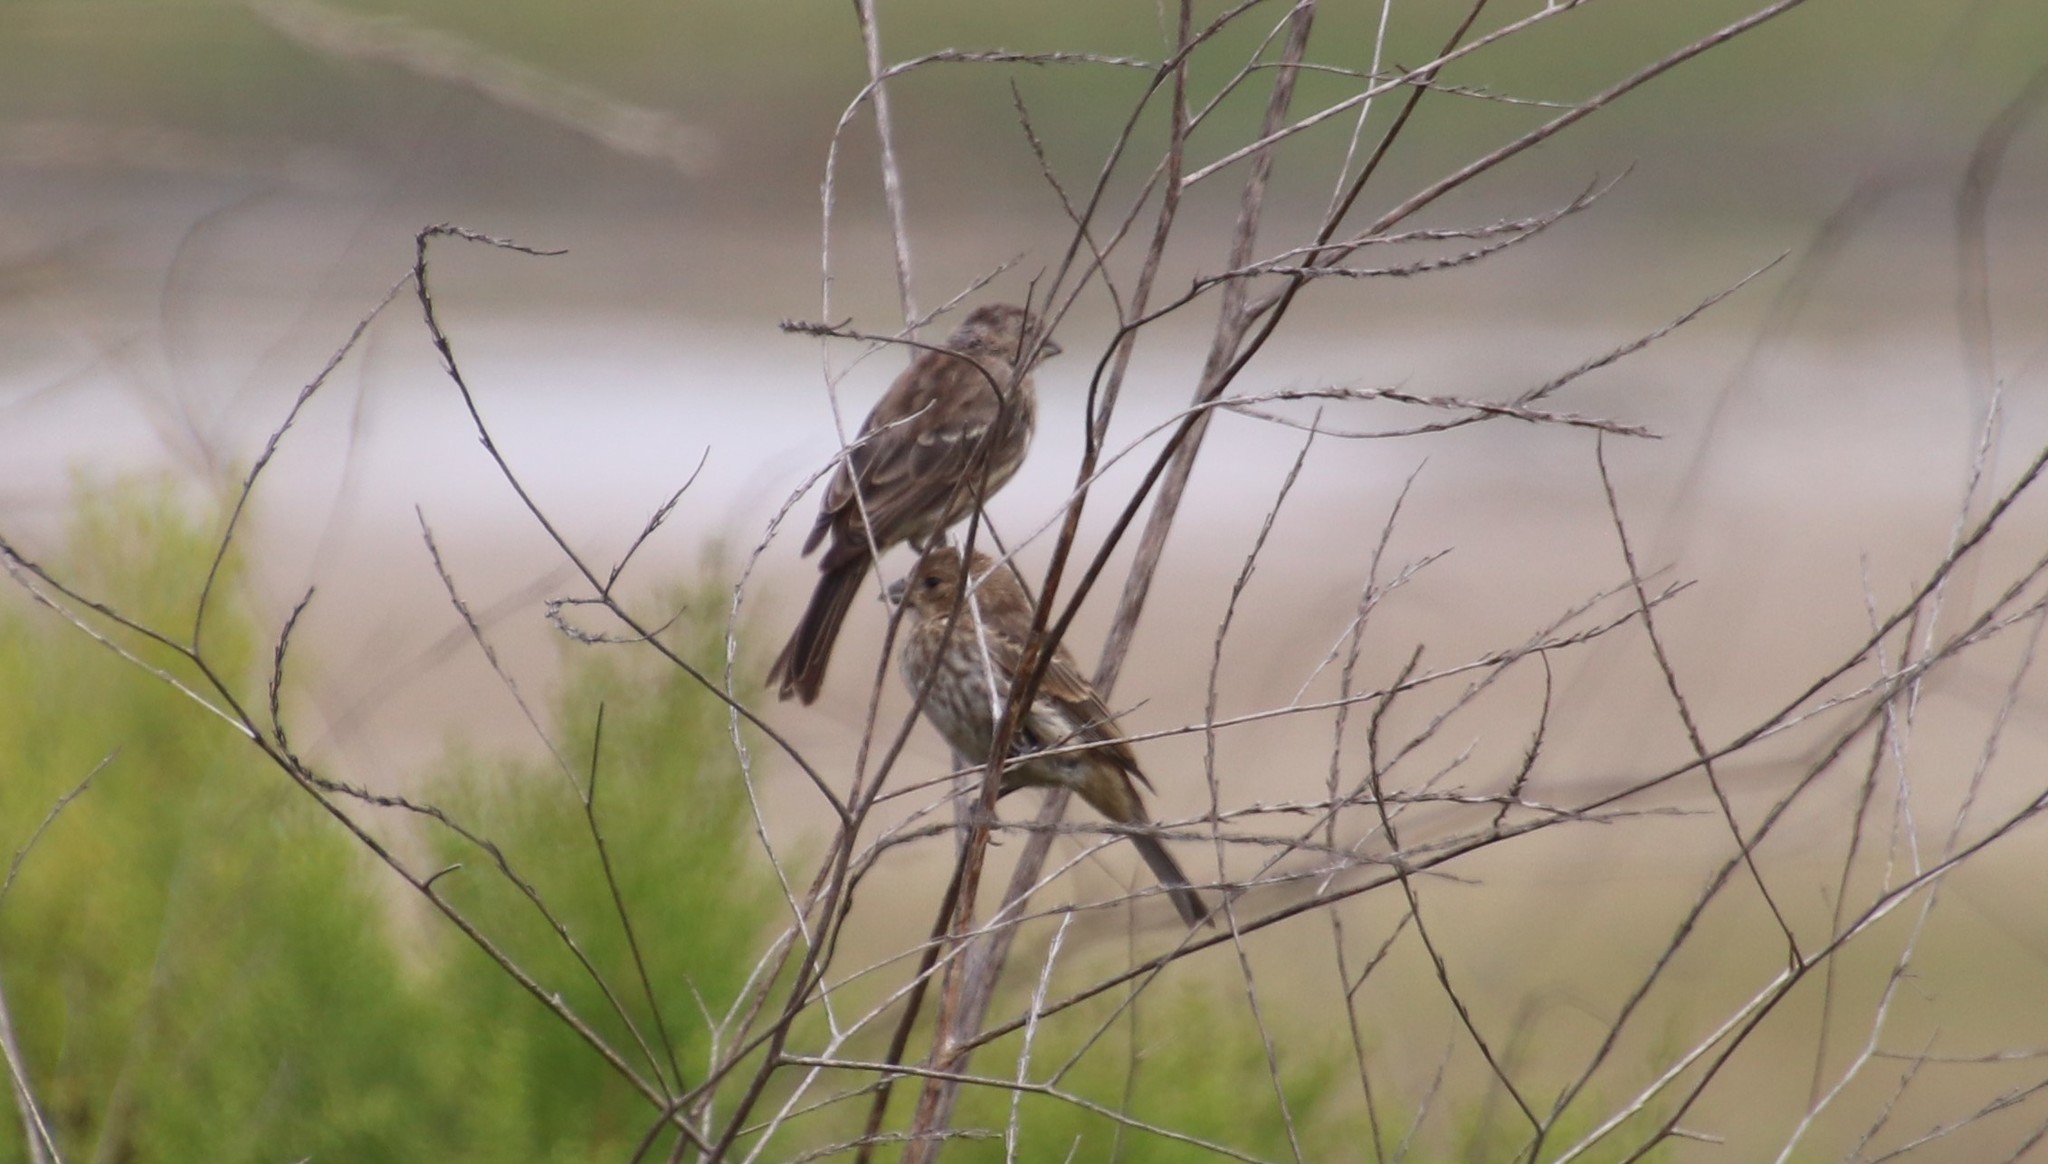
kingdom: Animalia
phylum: Chordata
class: Aves
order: Passeriformes
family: Fringillidae
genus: Haemorhous
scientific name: Haemorhous mexicanus
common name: House finch
